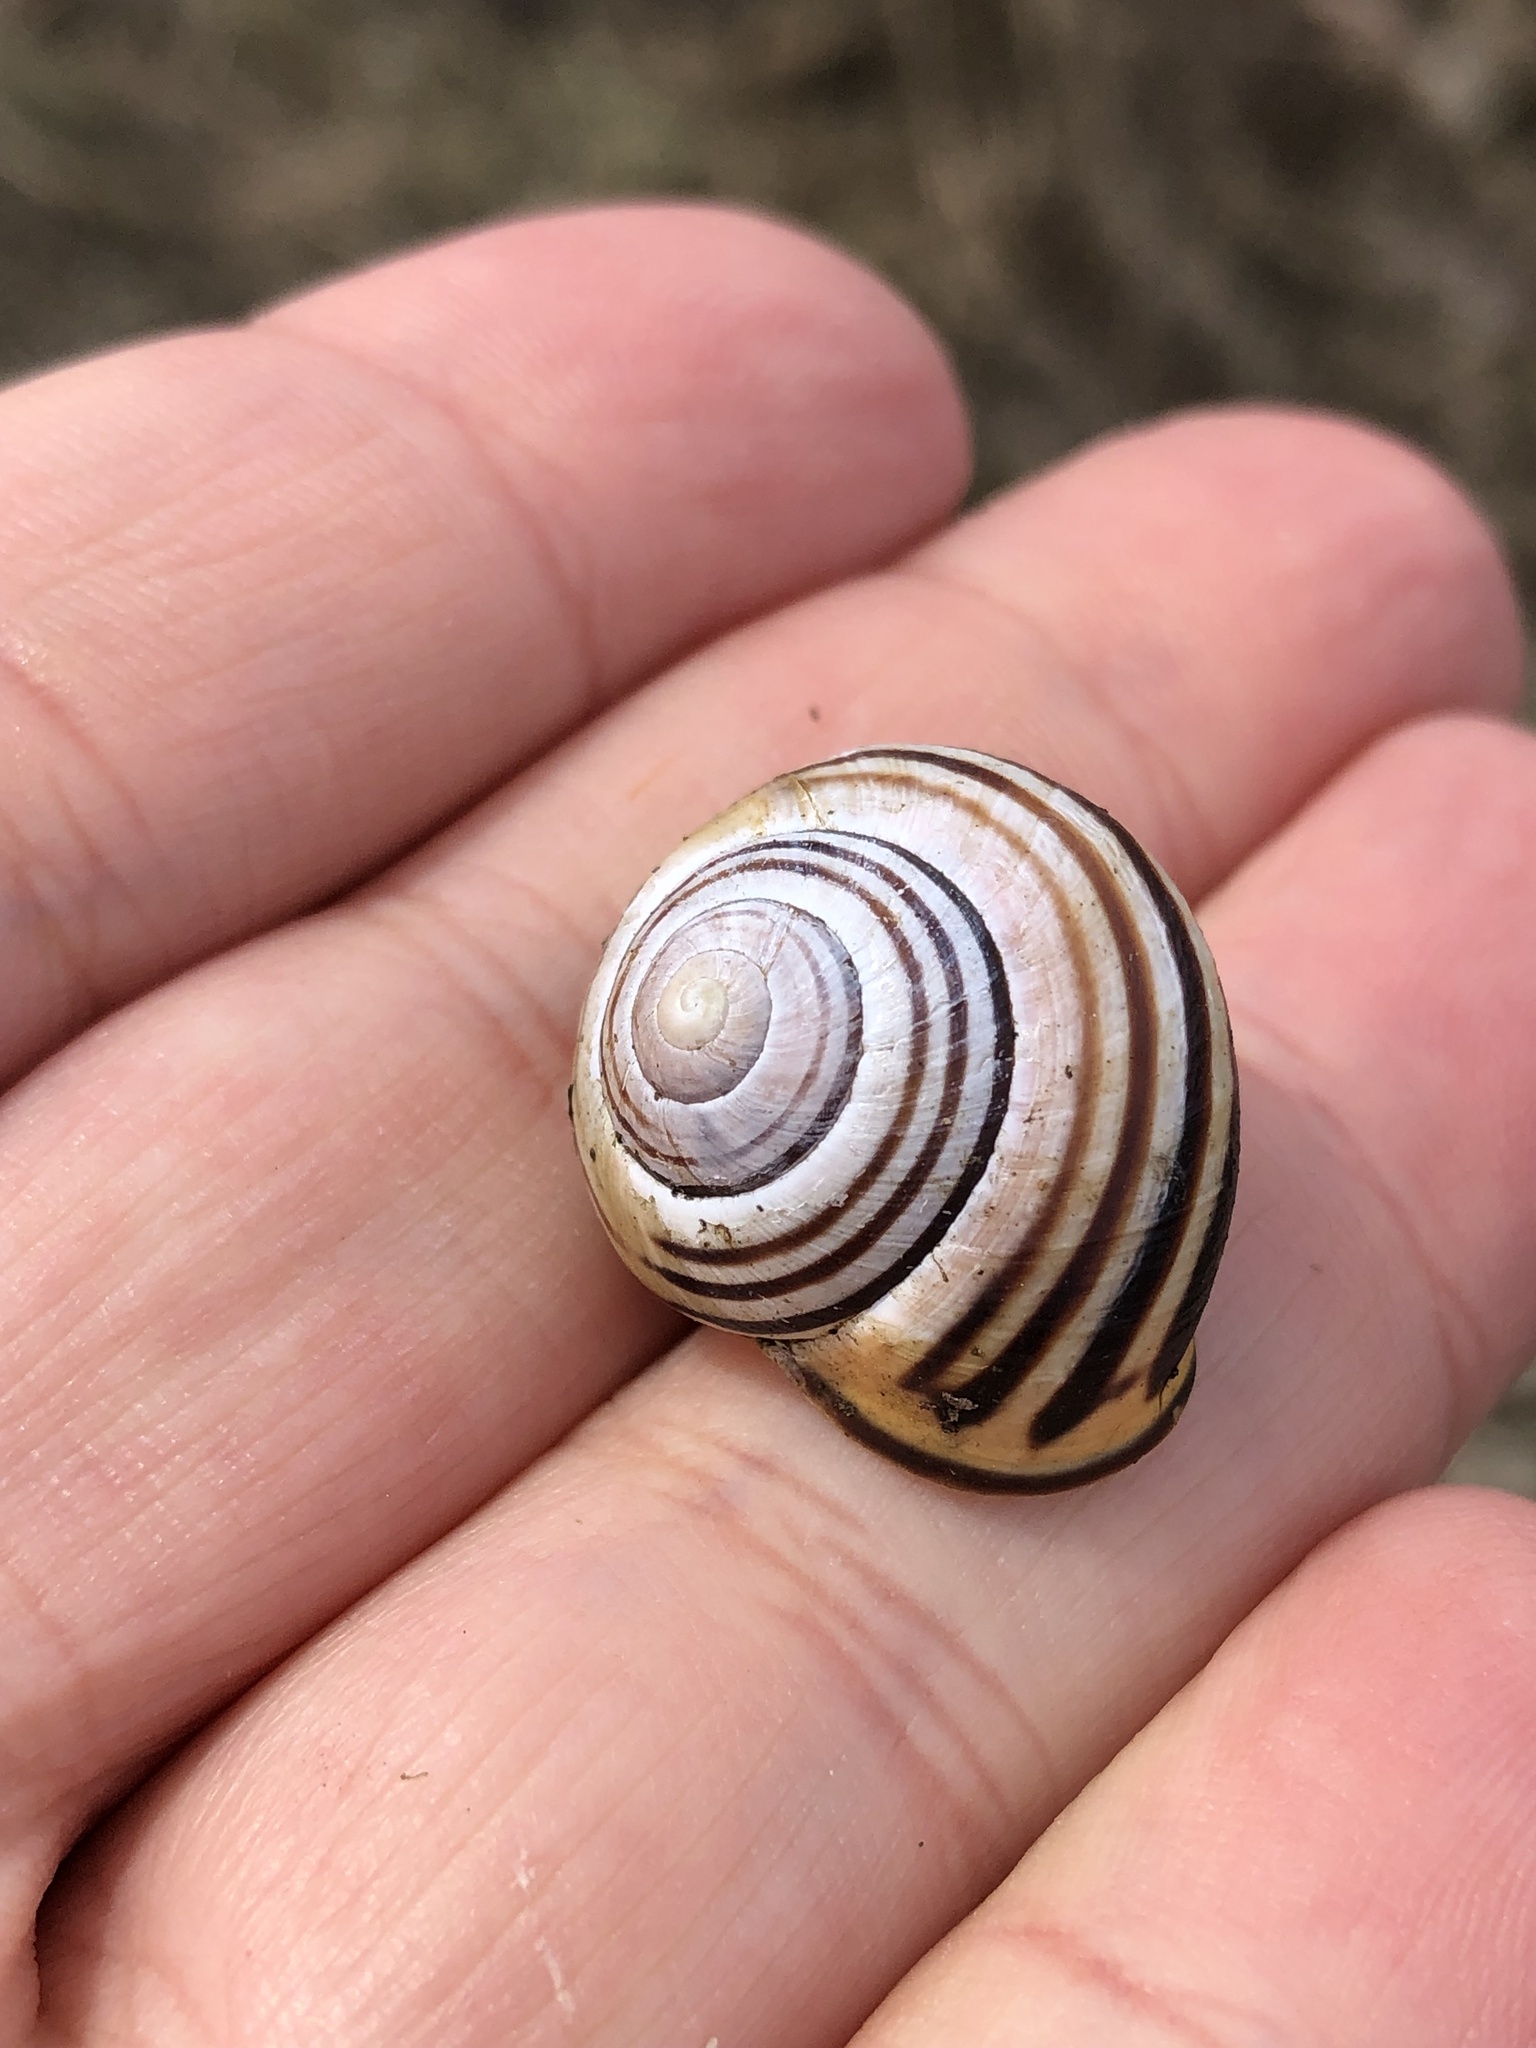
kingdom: Animalia
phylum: Mollusca
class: Gastropoda
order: Stylommatophora
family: Helicidae
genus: Cepaea
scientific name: Cepaea nemoralis
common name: Grovesnail
